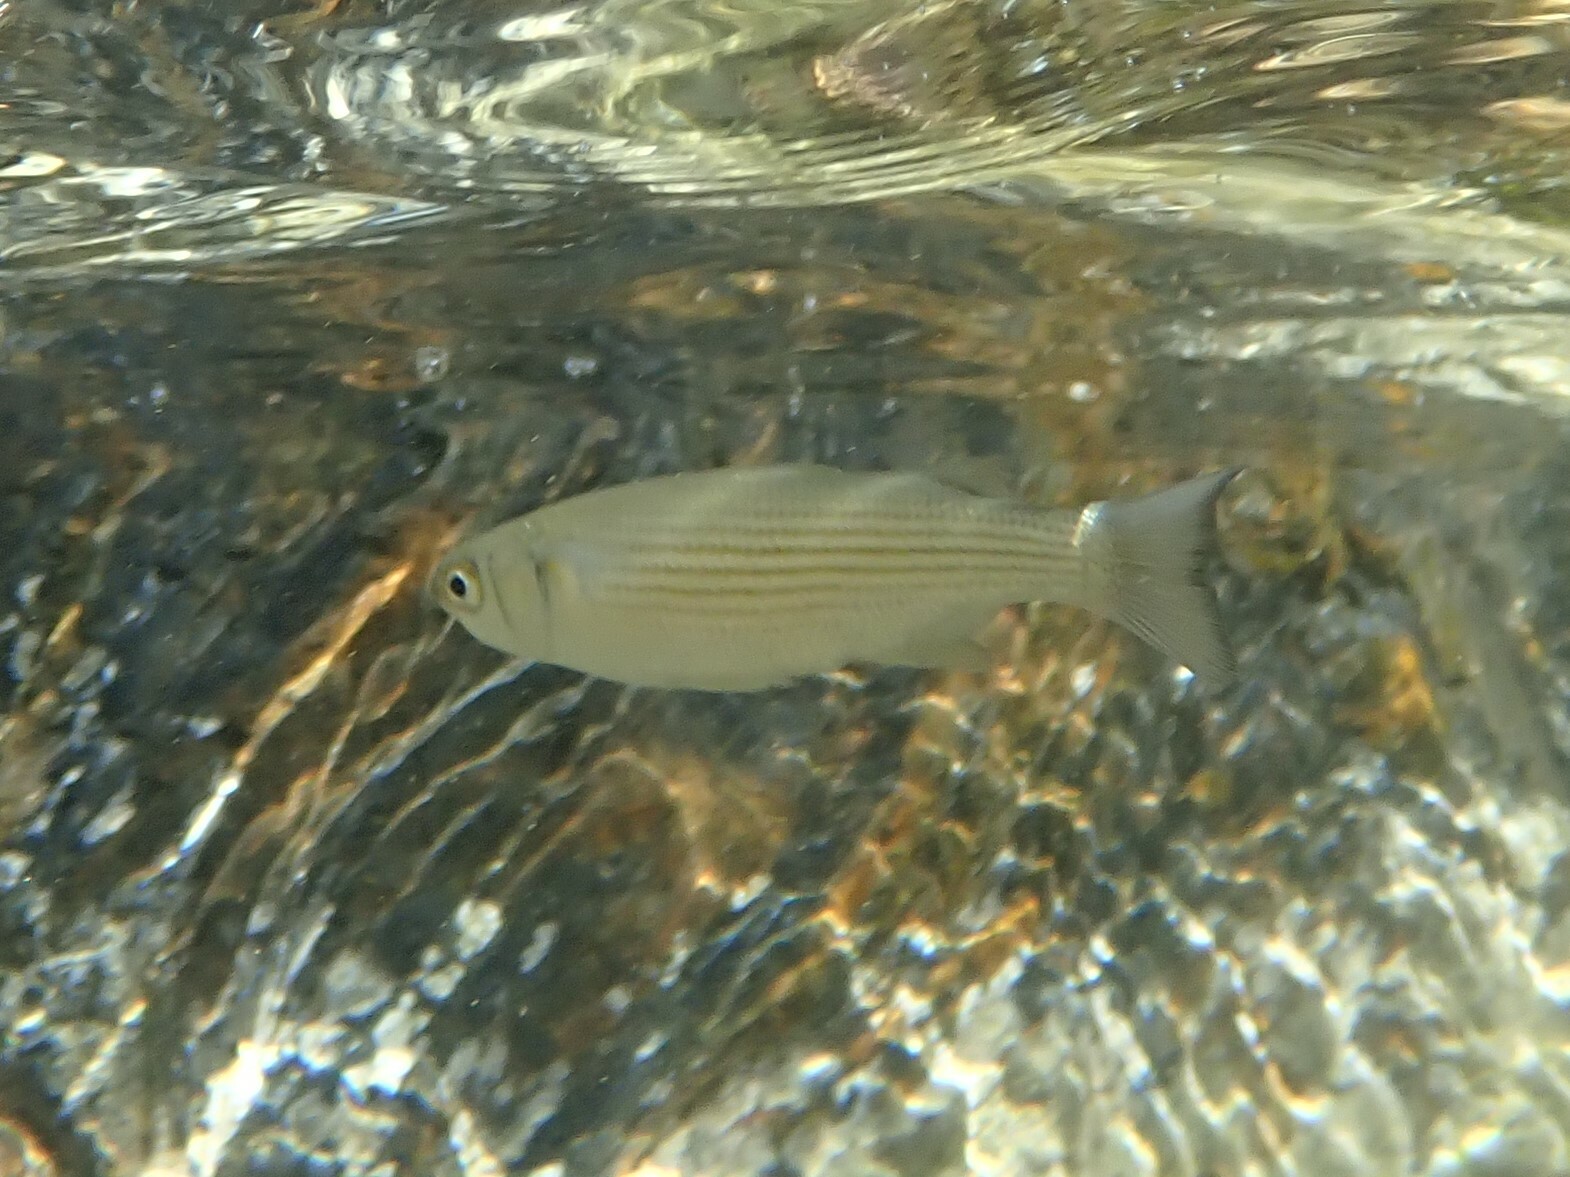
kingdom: Animalia
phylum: Chordata
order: Mugiliformes
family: Mugilidae
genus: Oedalechilus
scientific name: Oedalechilus labeo
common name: Boxlip mullet
